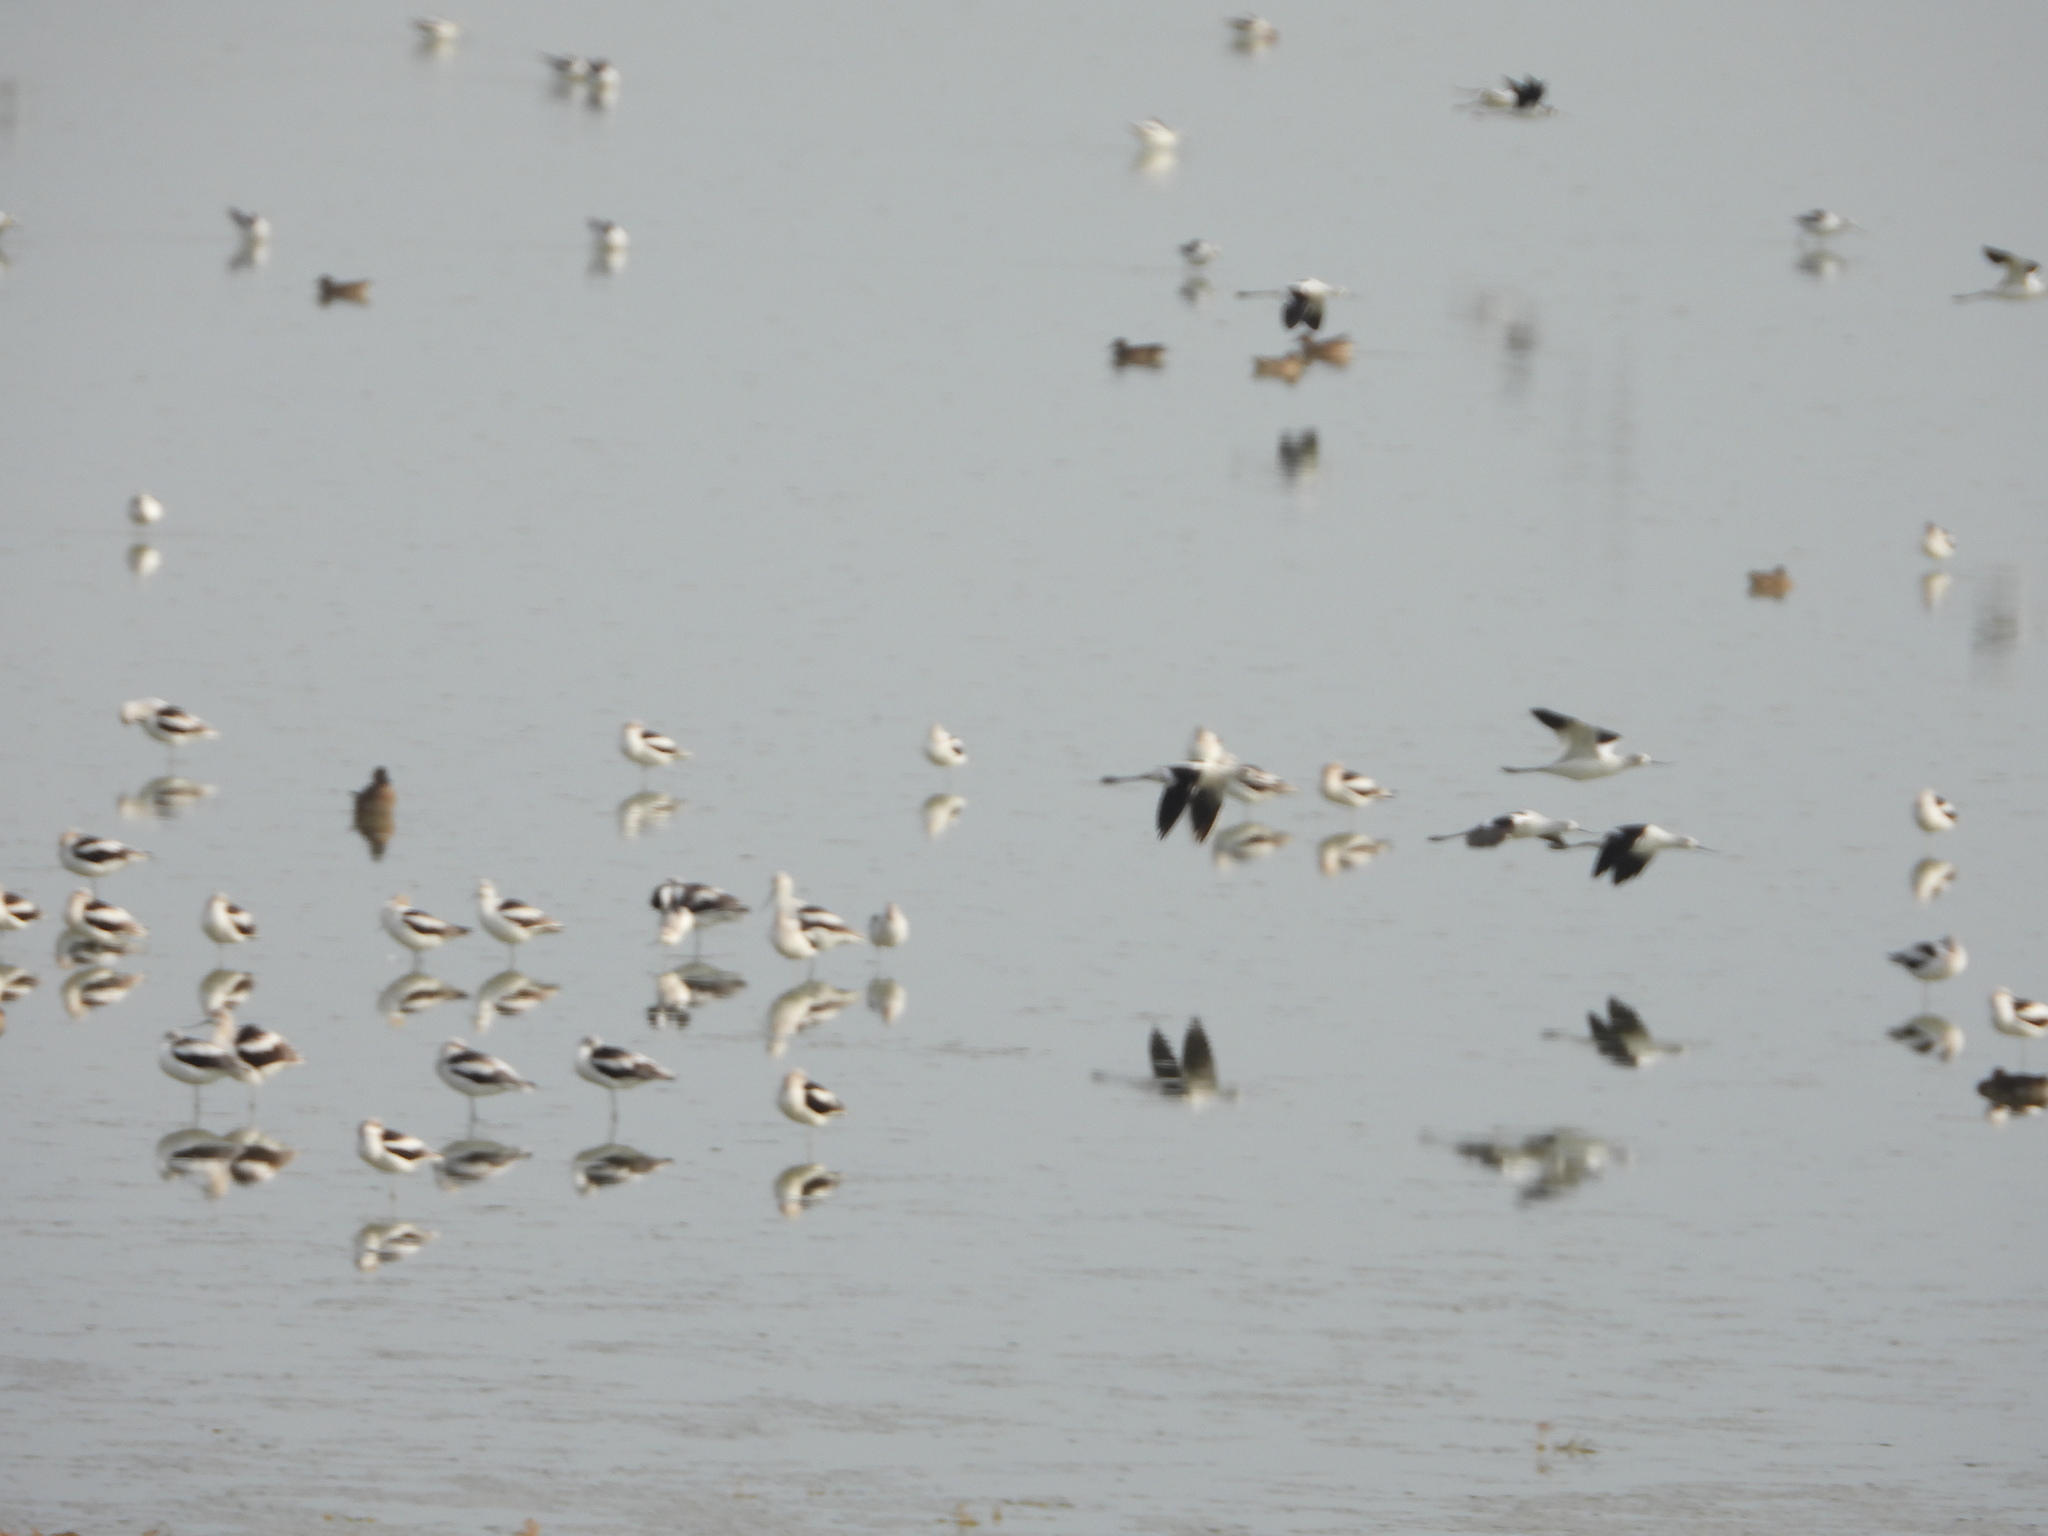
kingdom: Animalia
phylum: Chordata
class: Aves
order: Charadriiformes
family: Recurvirostridae
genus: Recurvirostra
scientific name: Recurvirostra americana
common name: American avocet
